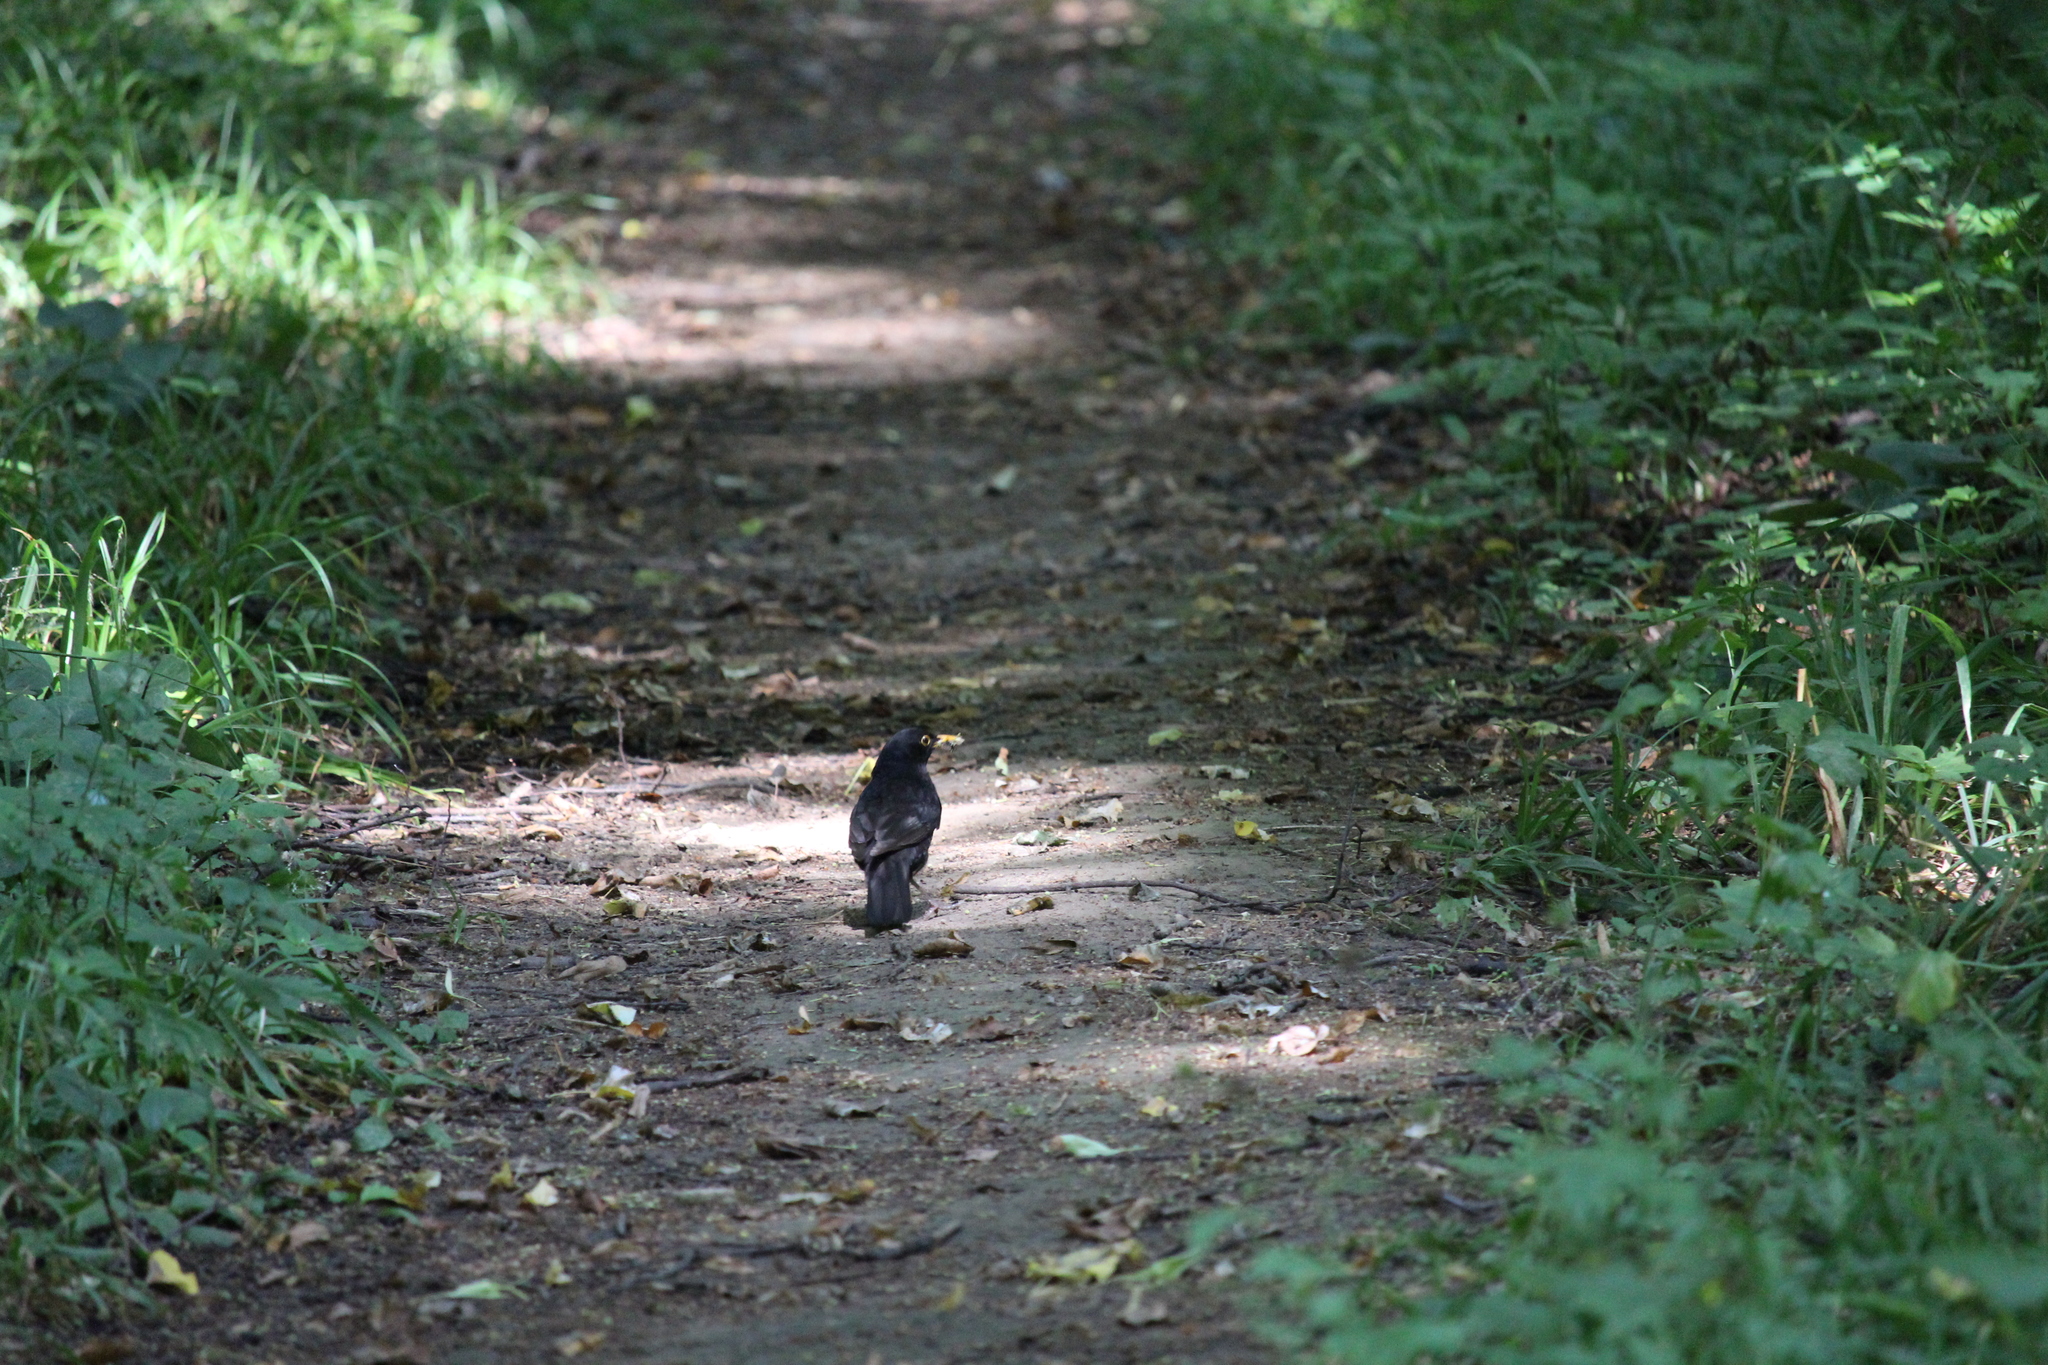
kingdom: Animalia
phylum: Chordata
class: Aves
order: Passeriformes
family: Turdidae
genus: Turdus
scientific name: Turdus merula
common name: Common blackbird
